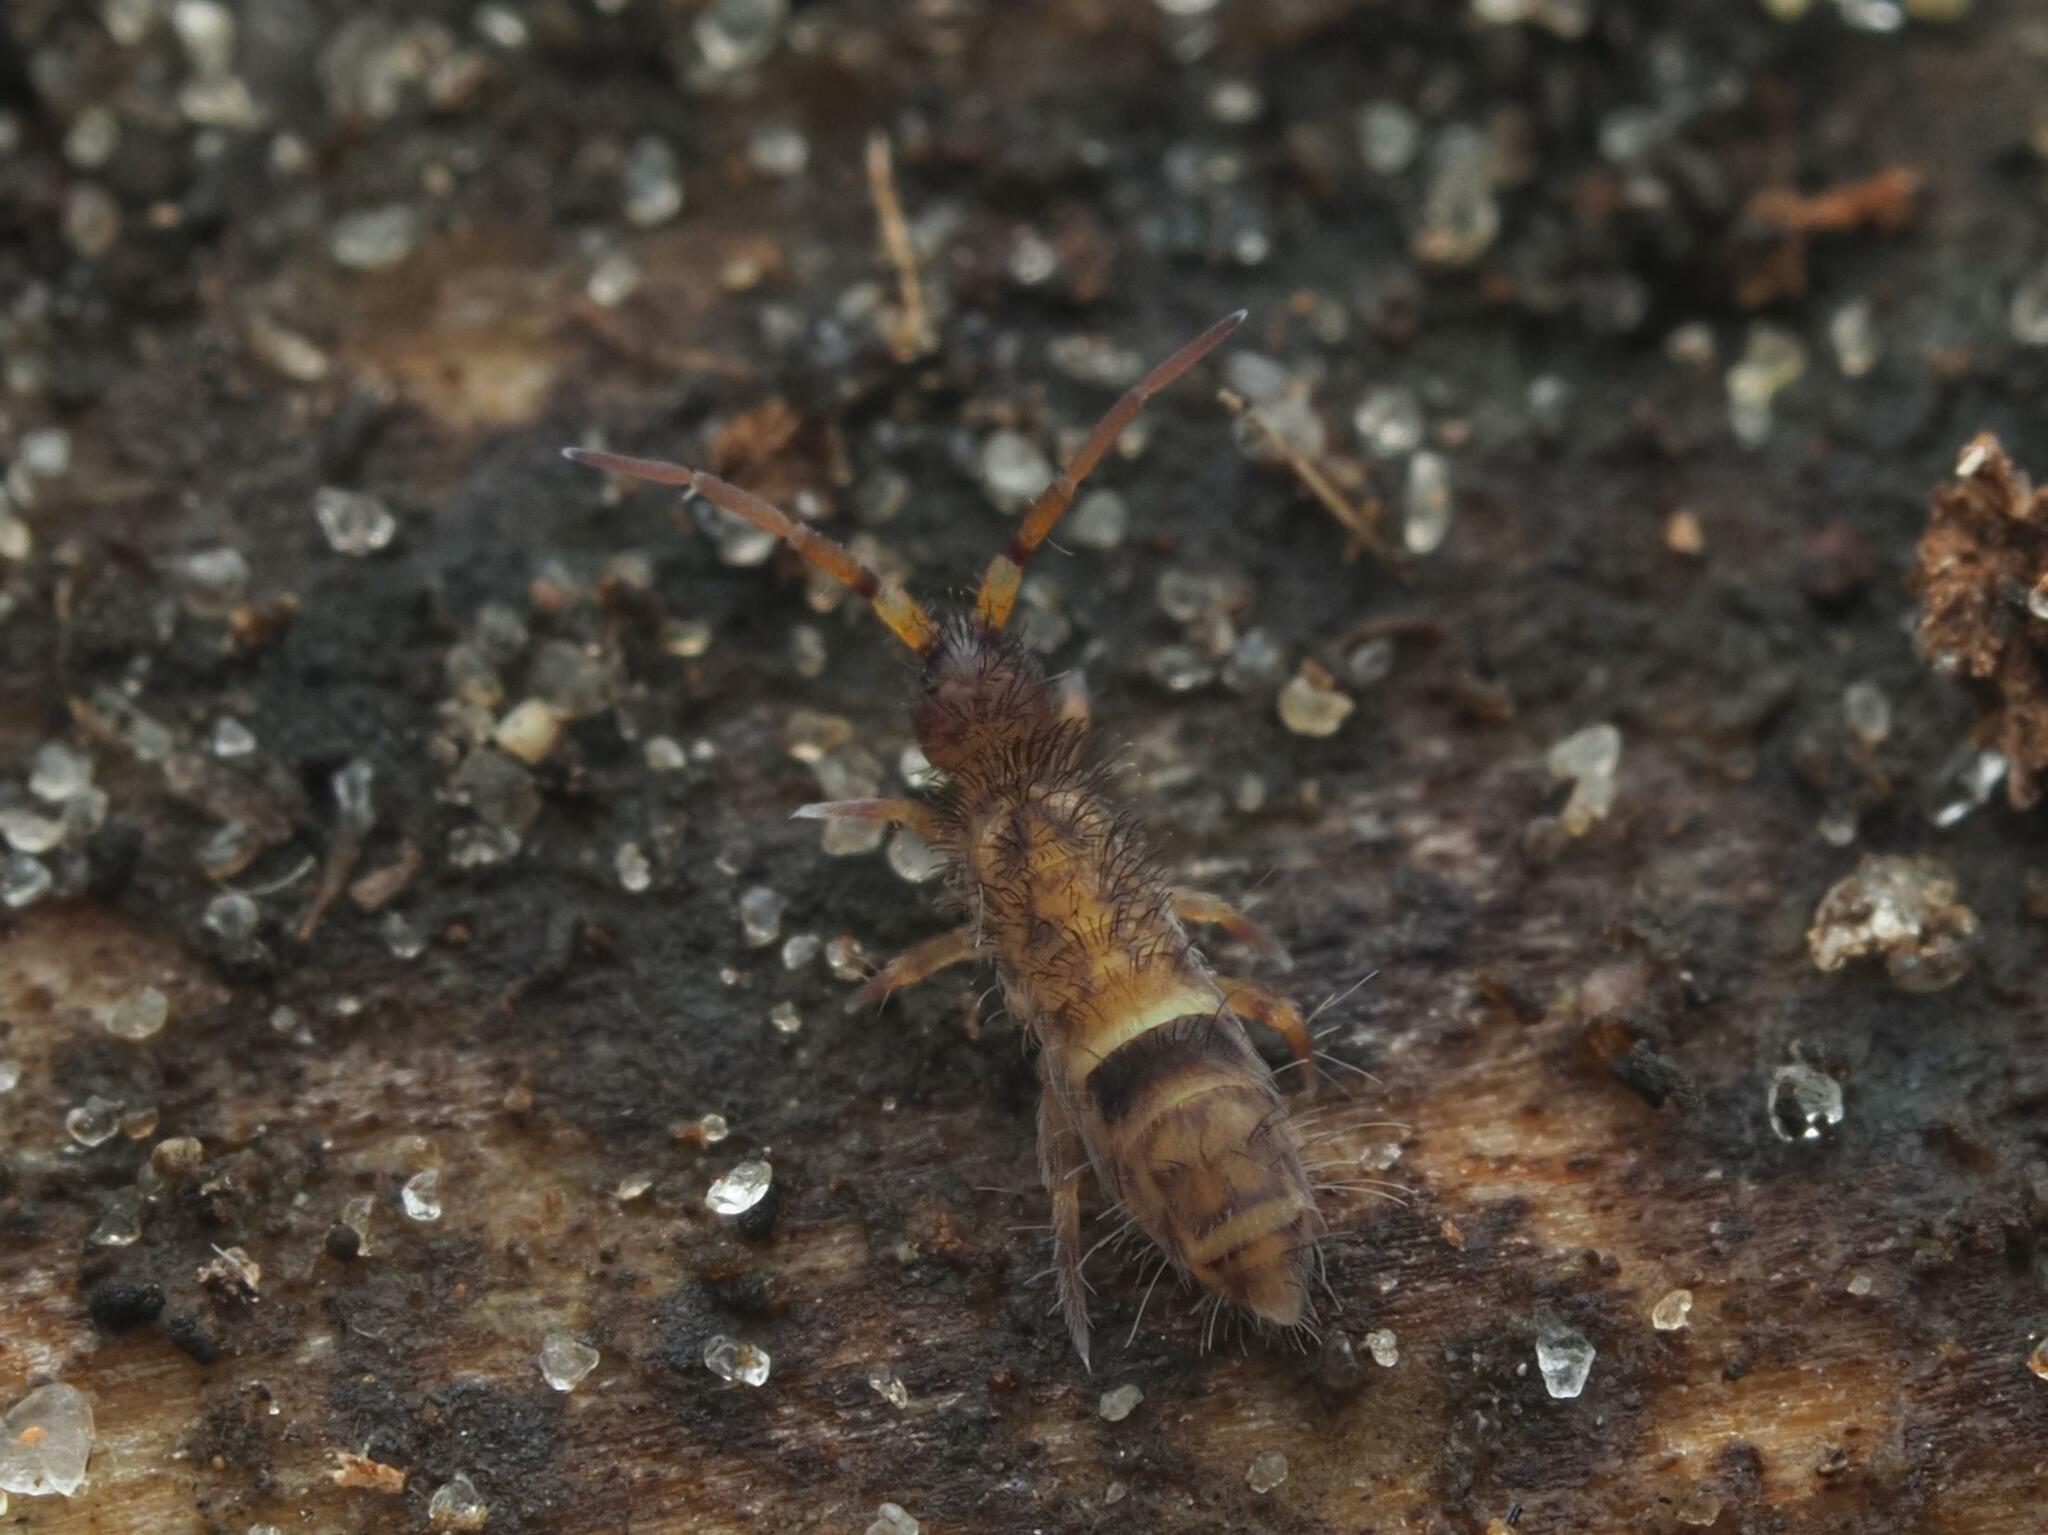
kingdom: Animalia
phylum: Arthropoda
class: Collembola
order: Entomobryomorpha
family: Orchesellidae
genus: Orchesella
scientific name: Orchesella cincta
